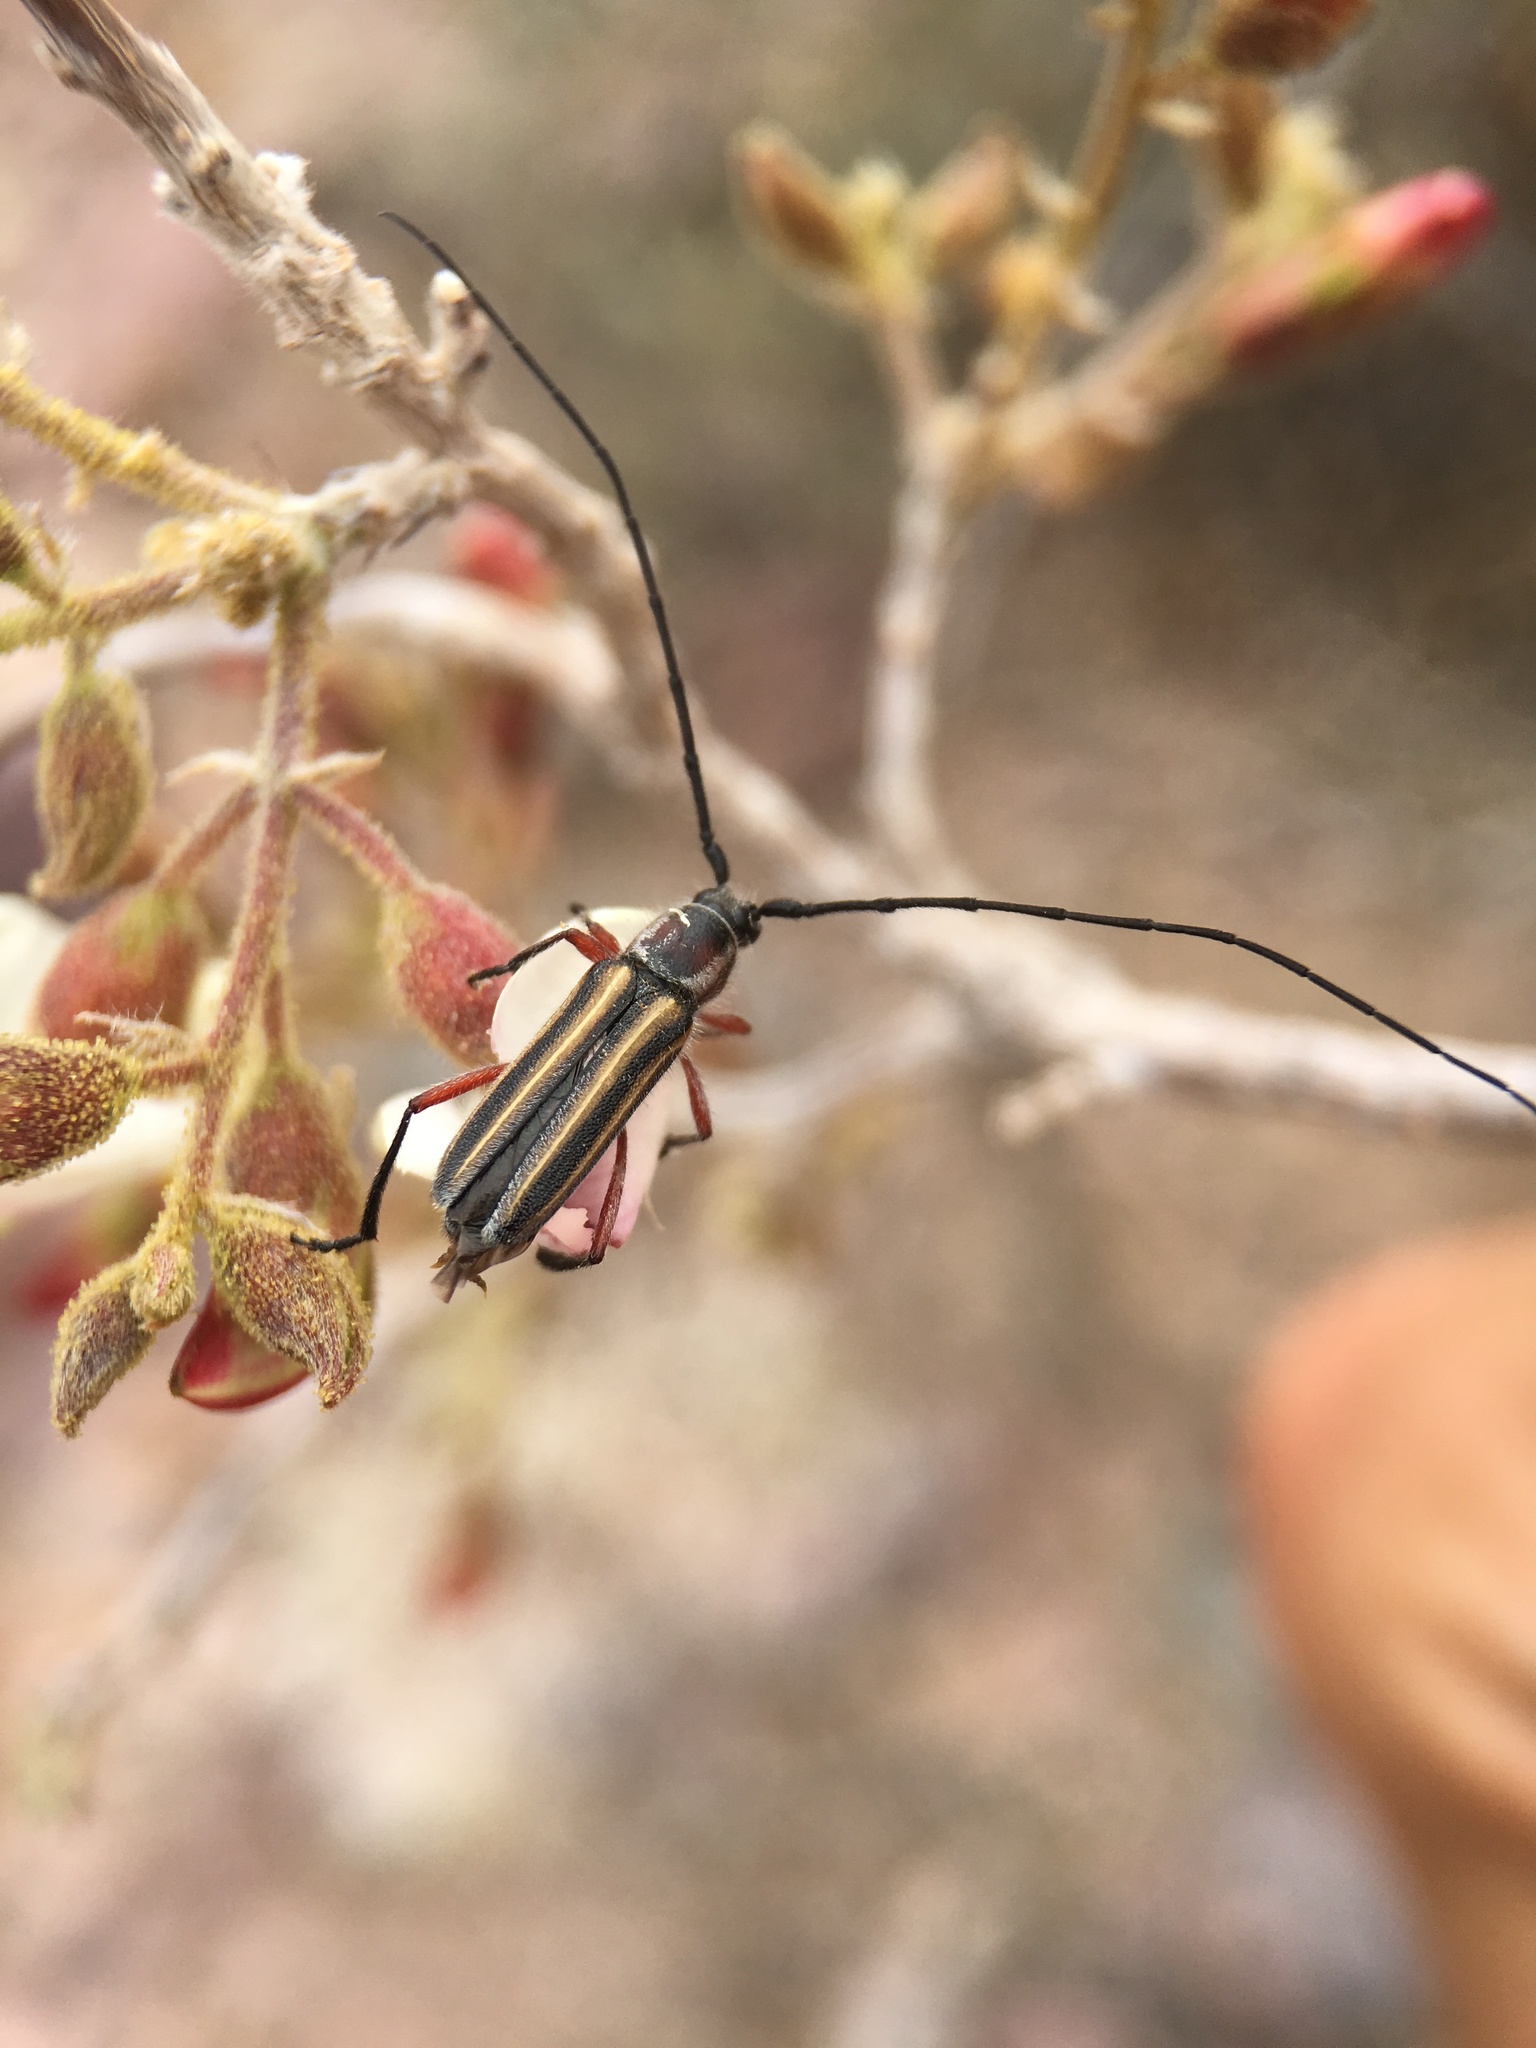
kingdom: Animalia
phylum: Arthropoda
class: Insecta
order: Coleoptera
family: Cerambycidae
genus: Sphaenothecus
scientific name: Sphaenothecus bilineatus
